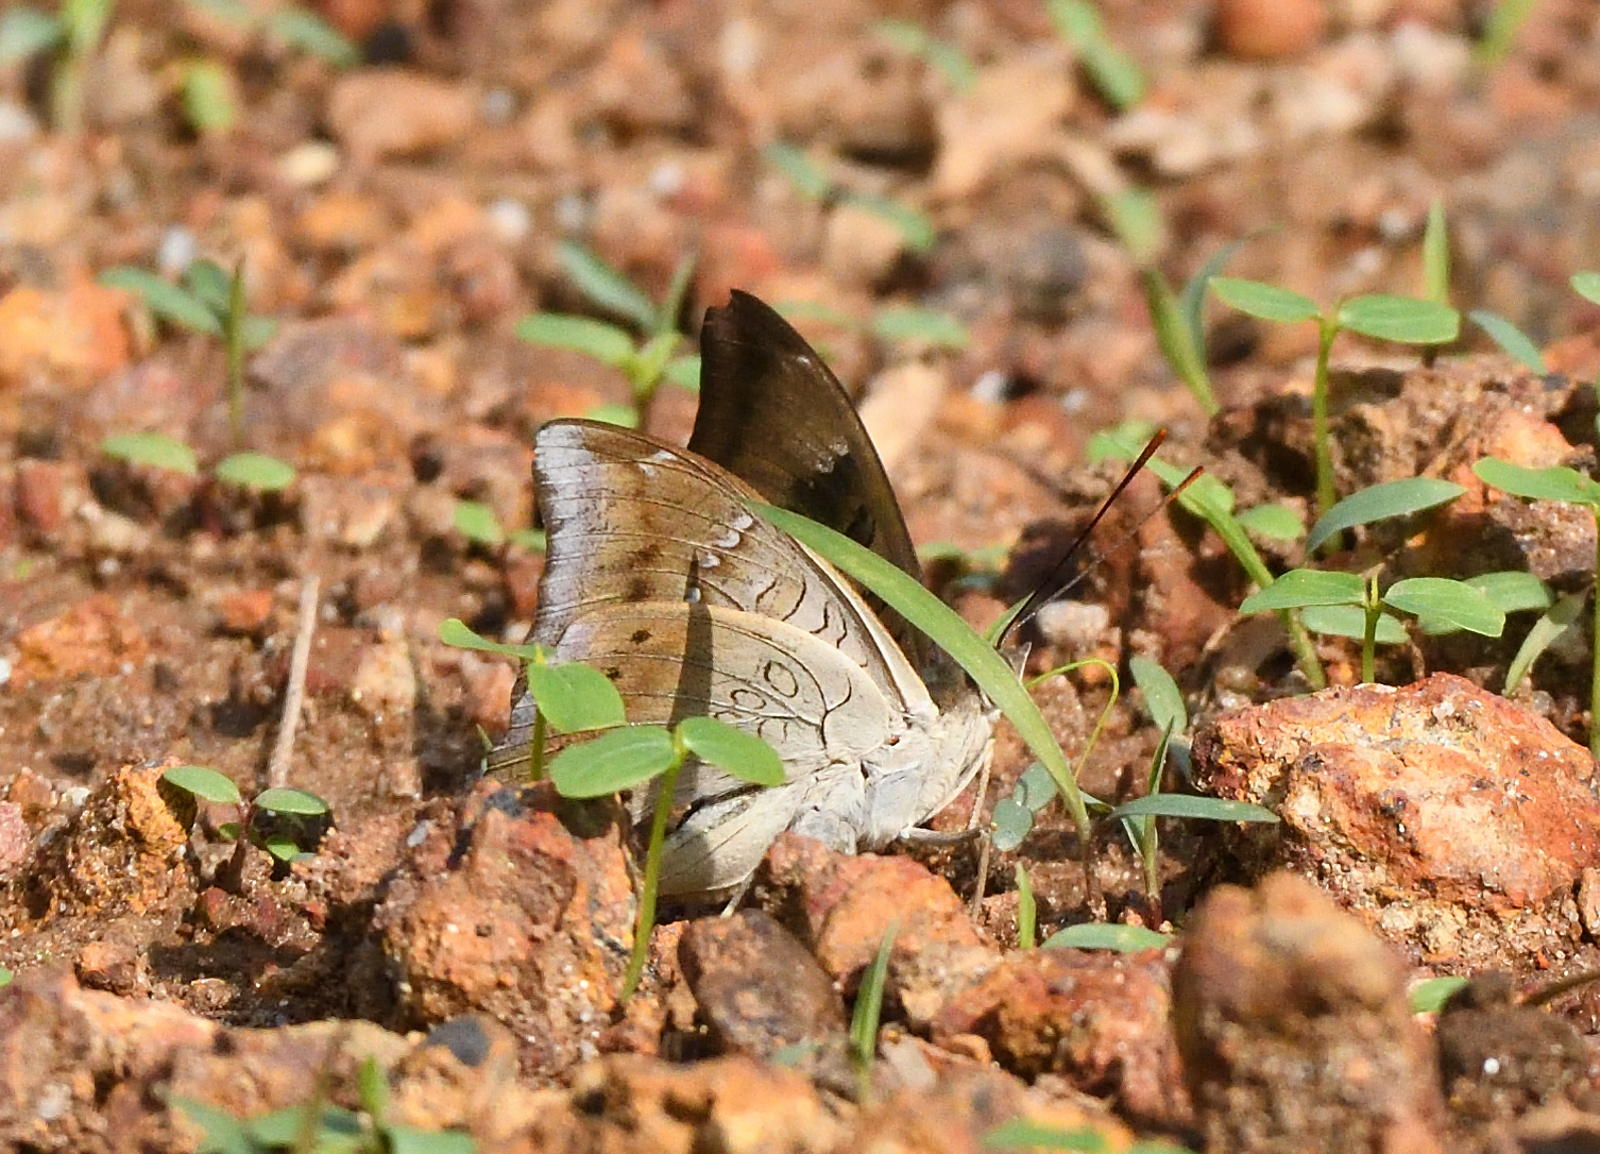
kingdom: Animalia
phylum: Arthropoda
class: Insecta
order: Lepidoptera
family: Nymphalidae
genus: Euthalia
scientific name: Euthalia aconthea
